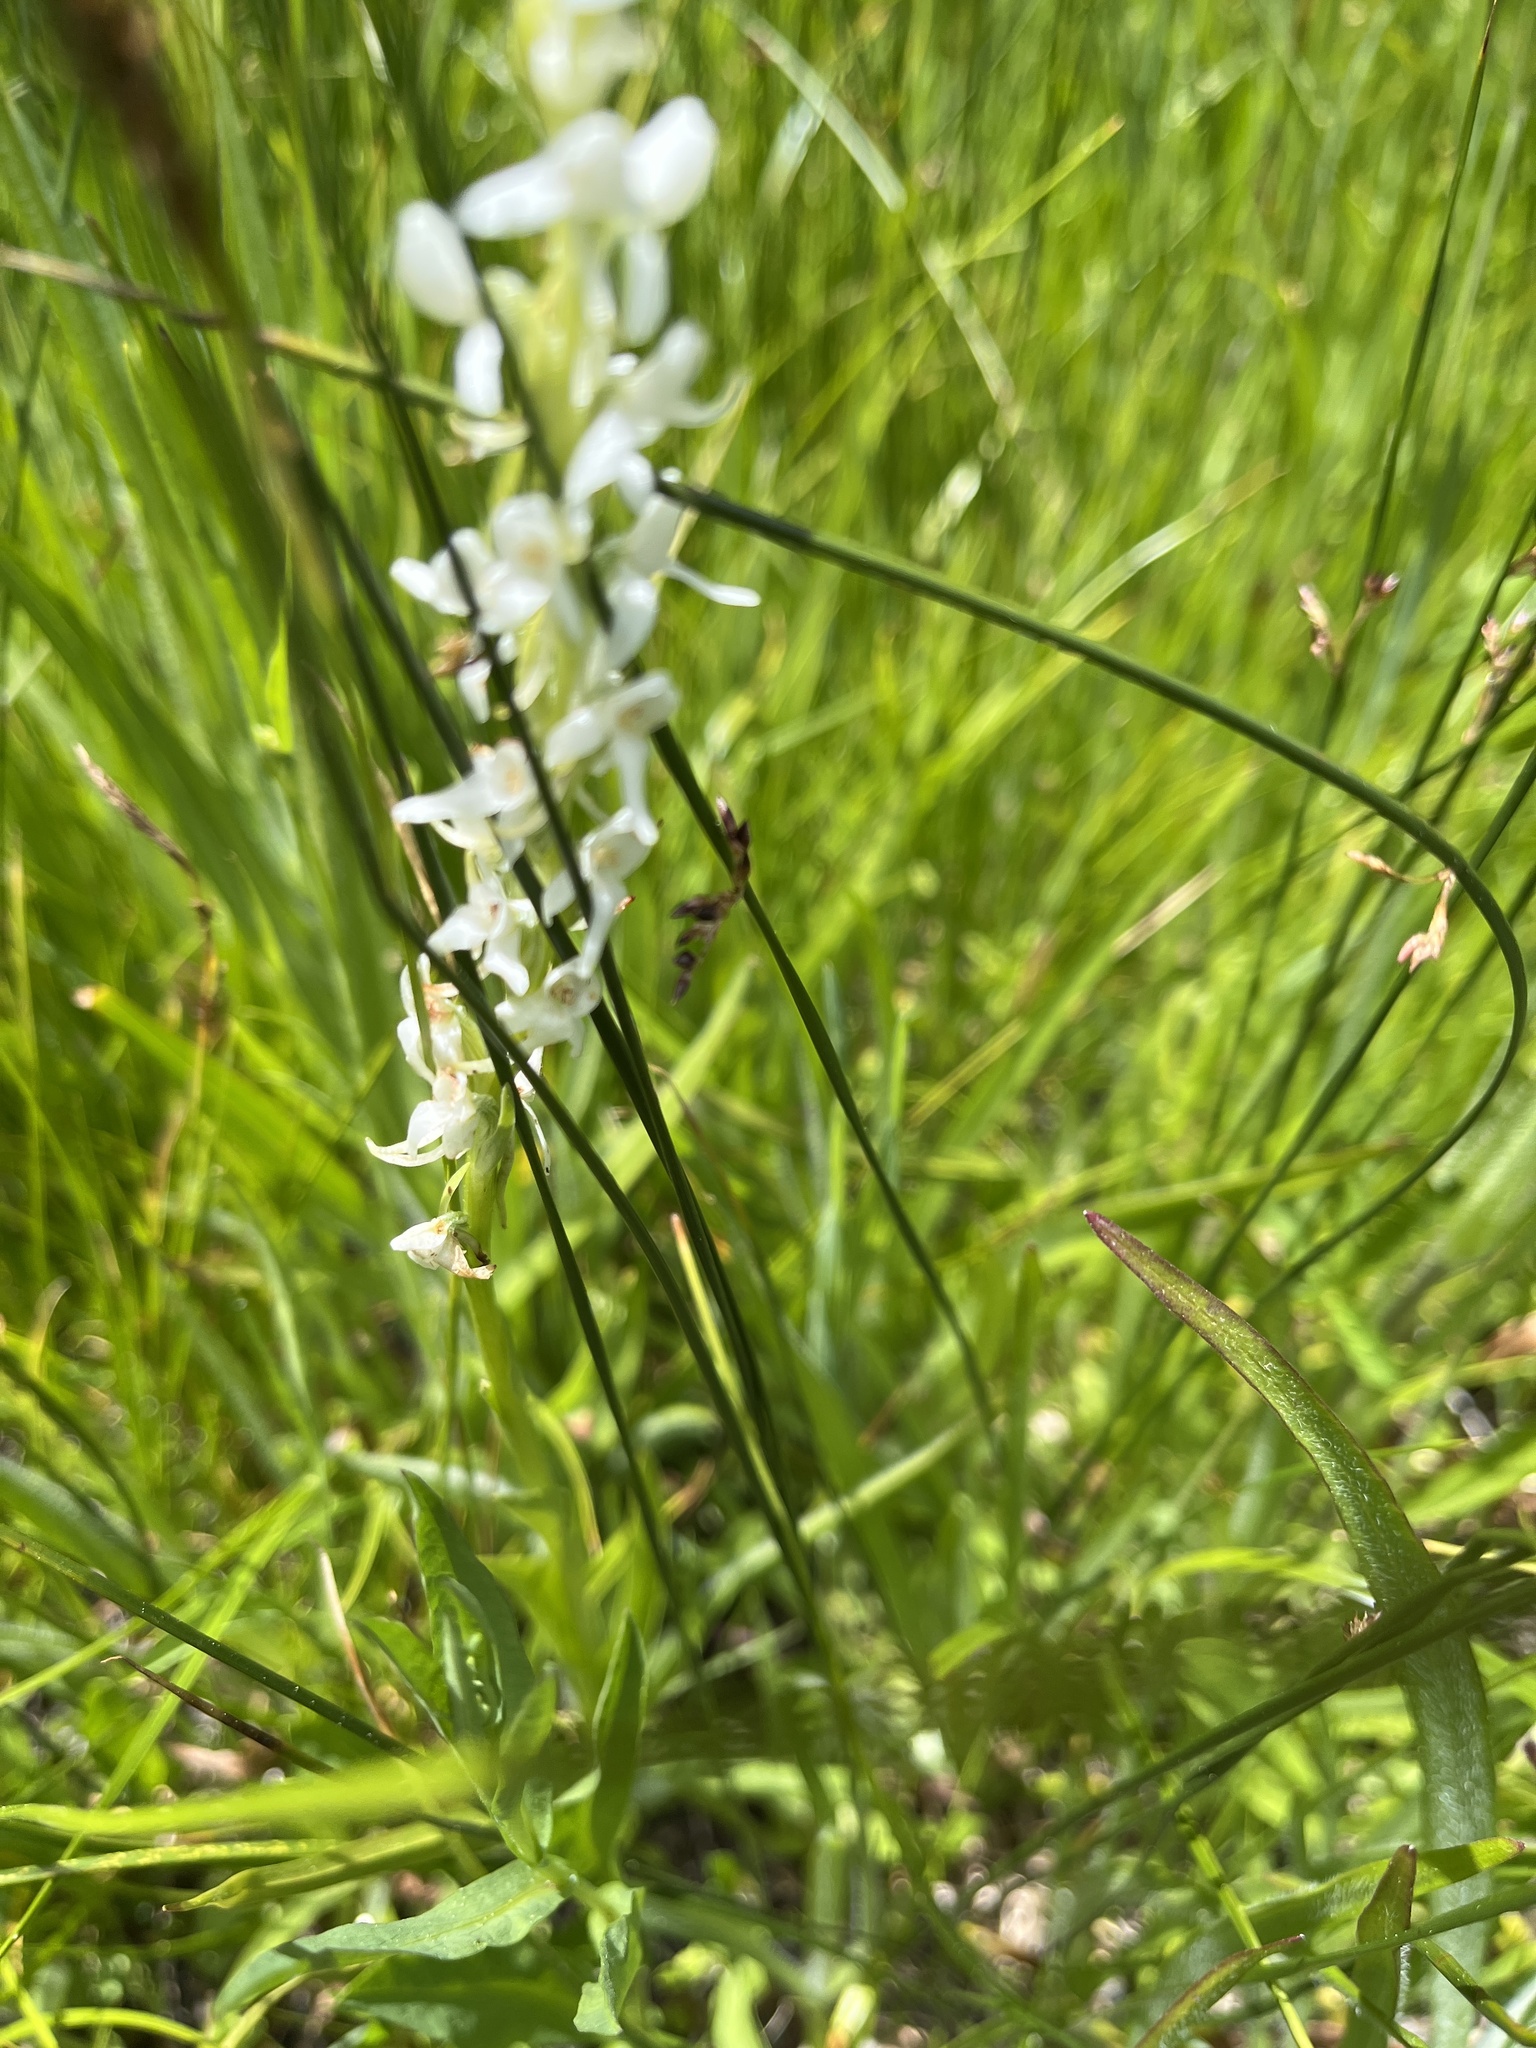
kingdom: Plantae
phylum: Tracheophyta
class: Liliopsida
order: Asparagales
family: Orchidaceae
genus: Platanthera
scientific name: Platanthera dilatata
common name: Bog candles
